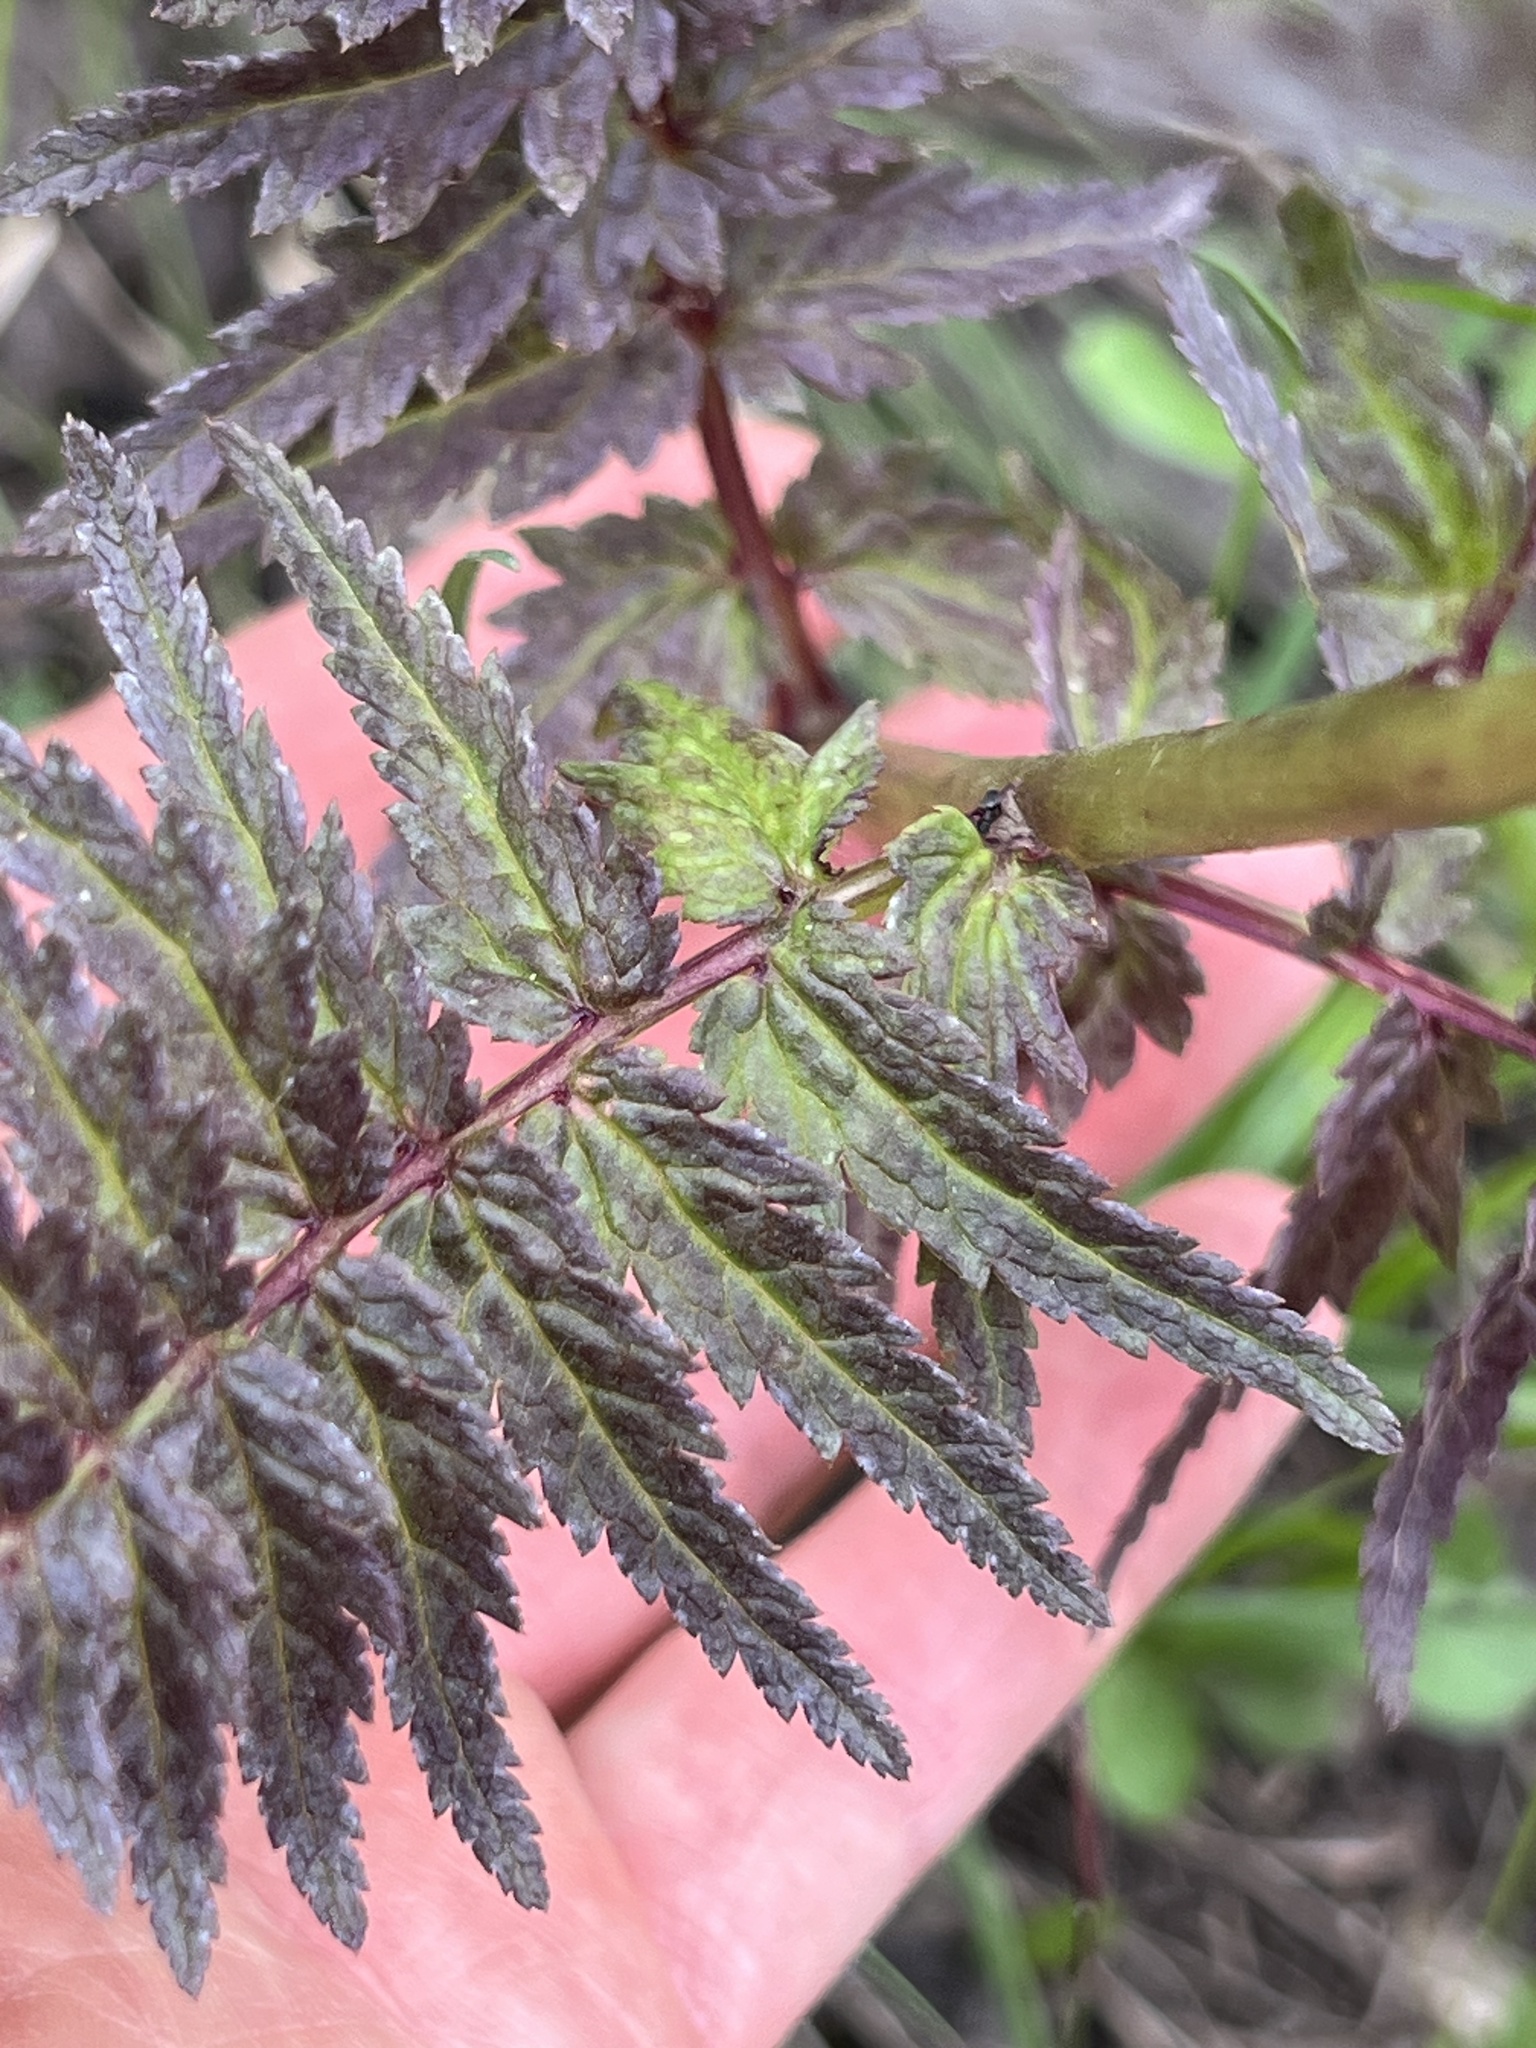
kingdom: Plantae
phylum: Tracheophyta
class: Magnoliopsida
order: Lamiales
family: Orobanchaceae
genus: Pedicularis
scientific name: Pedicularis bracteosa
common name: Bracted lousewort
